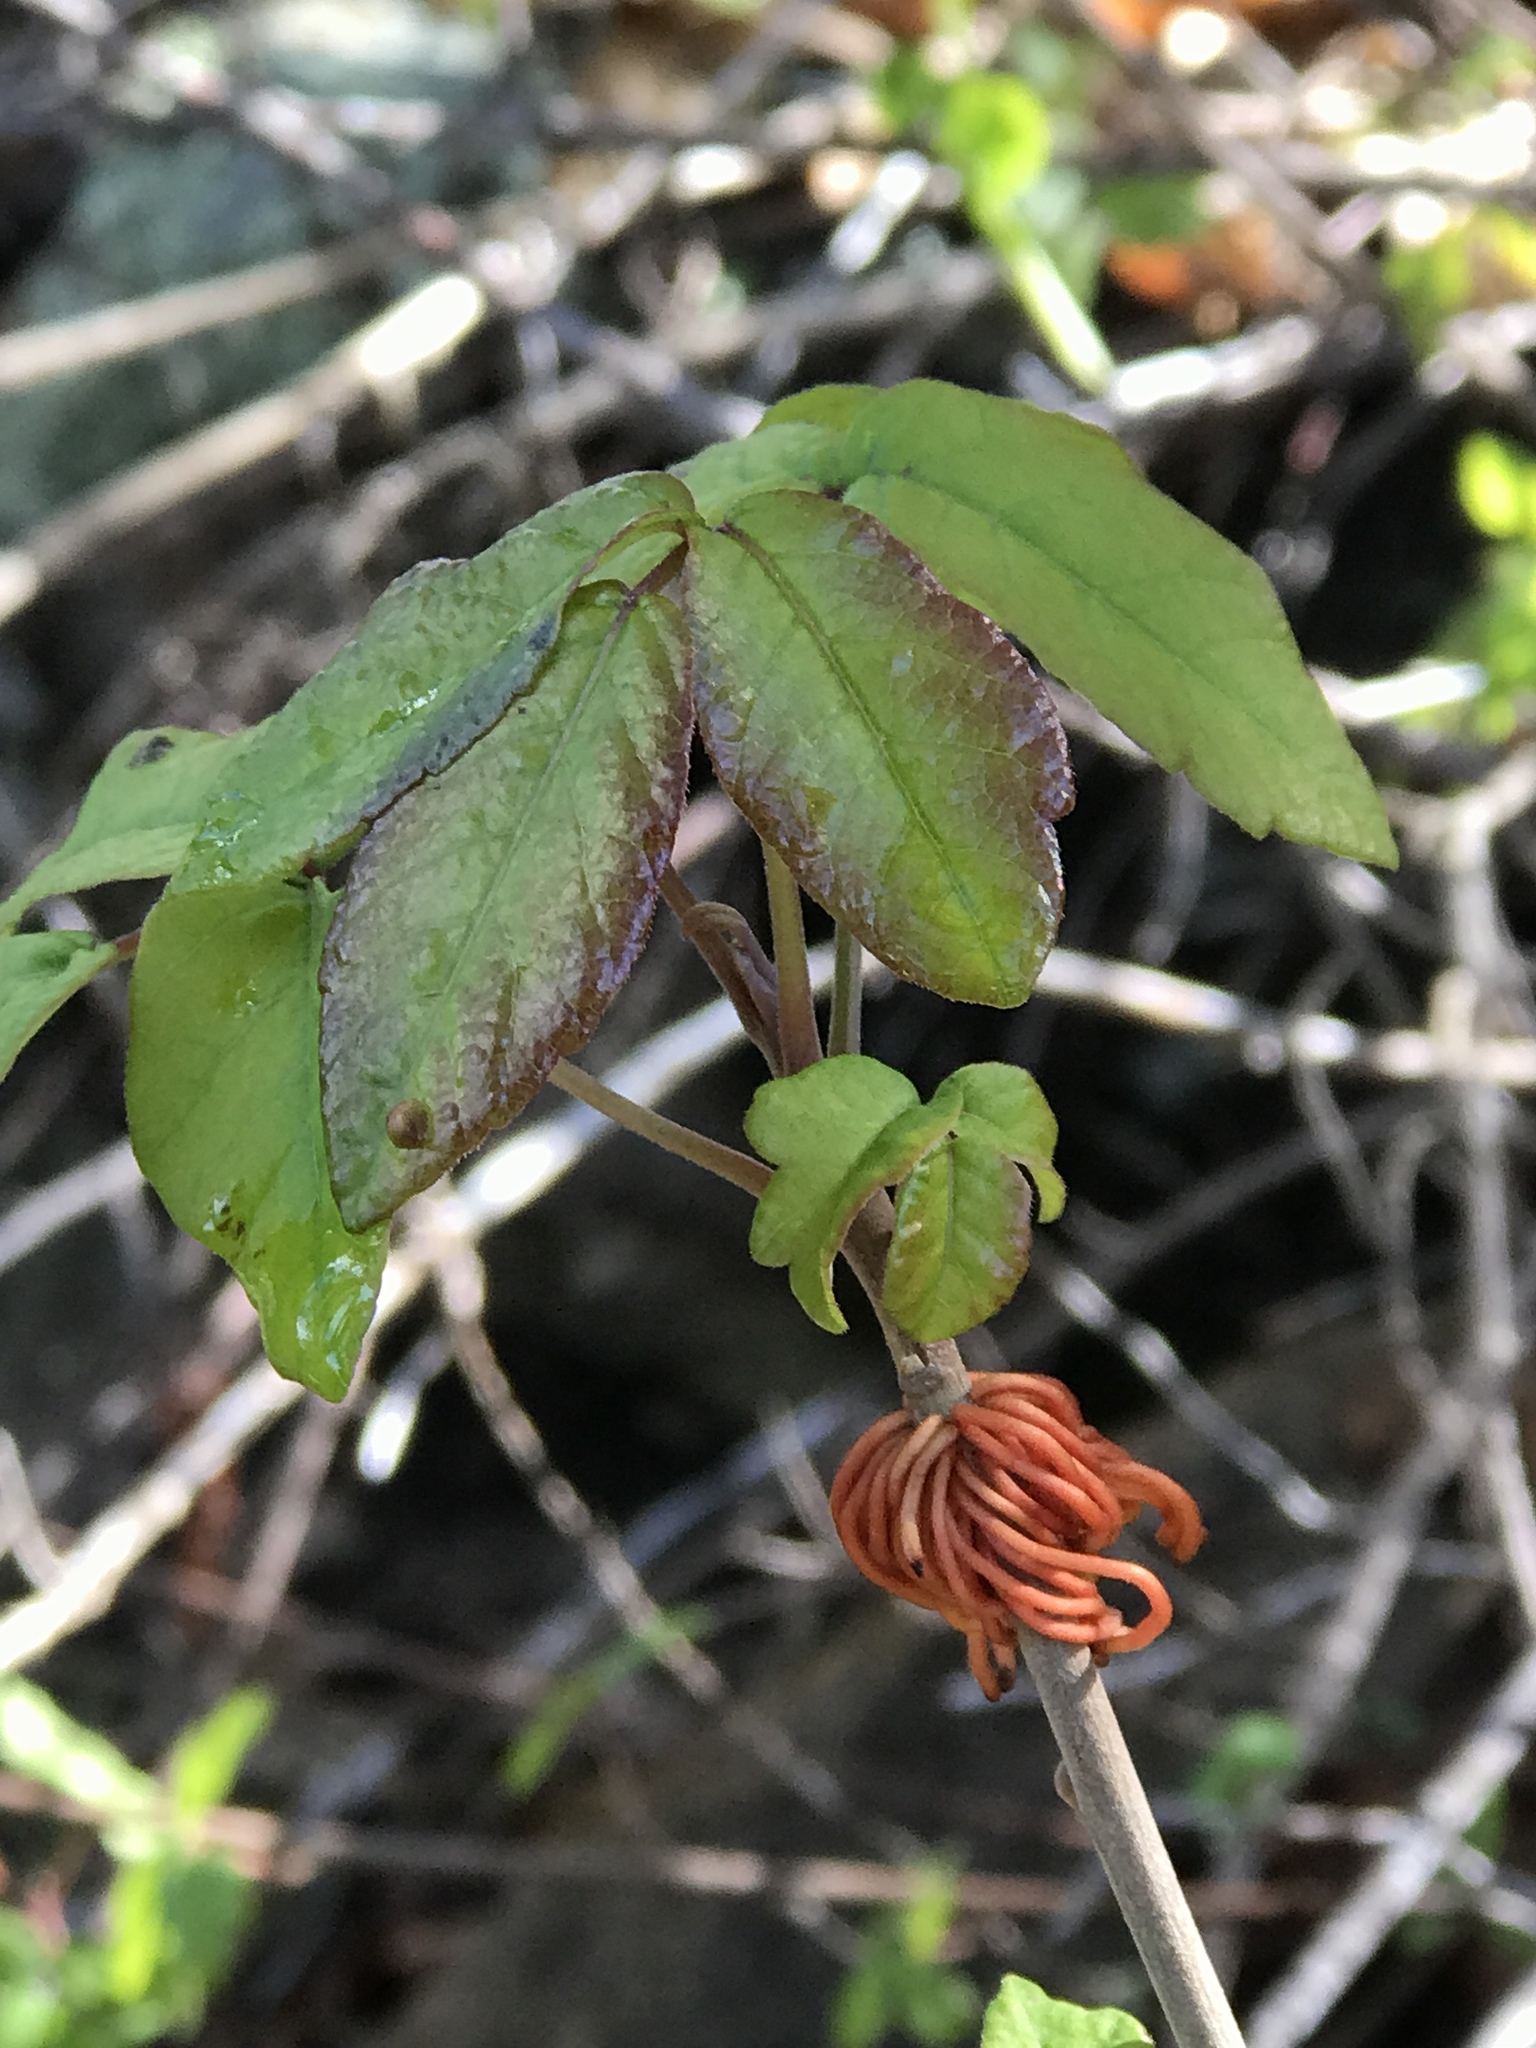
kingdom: Plantae
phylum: Tracheophyta
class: Magnoliopsida
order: Sapindales
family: Anacardiaceae
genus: Toxicodendron
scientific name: Toxicodendron diversilobum
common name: Pacific poison-oak
